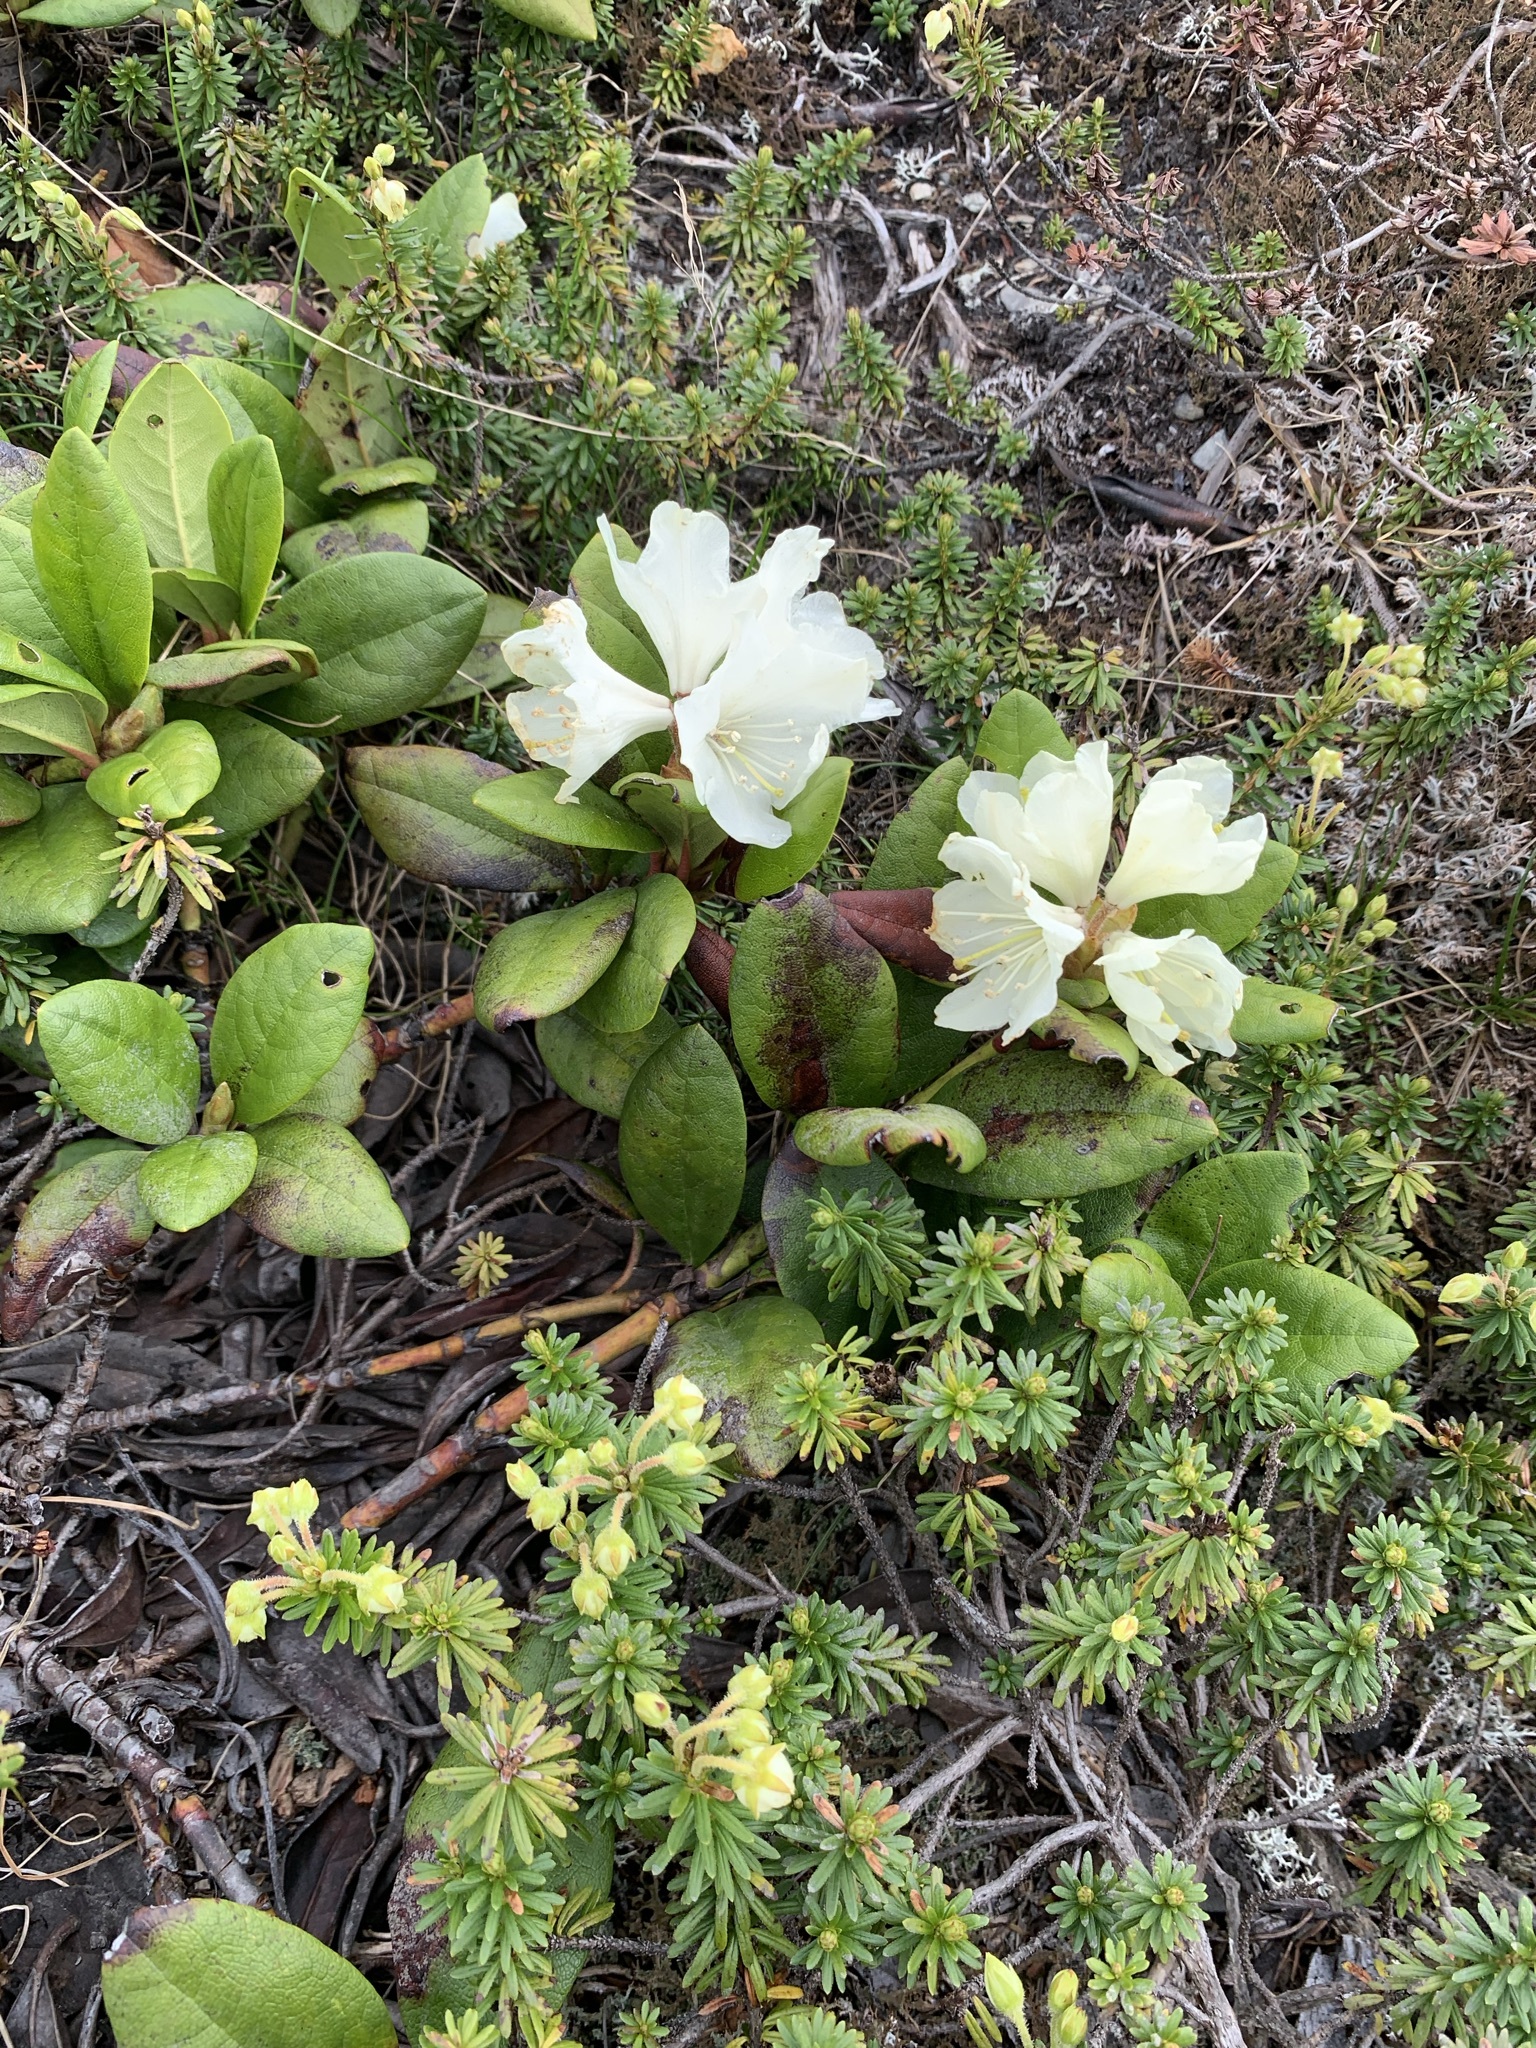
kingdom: Plantae
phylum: Tracheophyta
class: Magnoliopsida
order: Ericales
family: Ericaceae
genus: Rhododendron
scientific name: Rhododendron aureum
